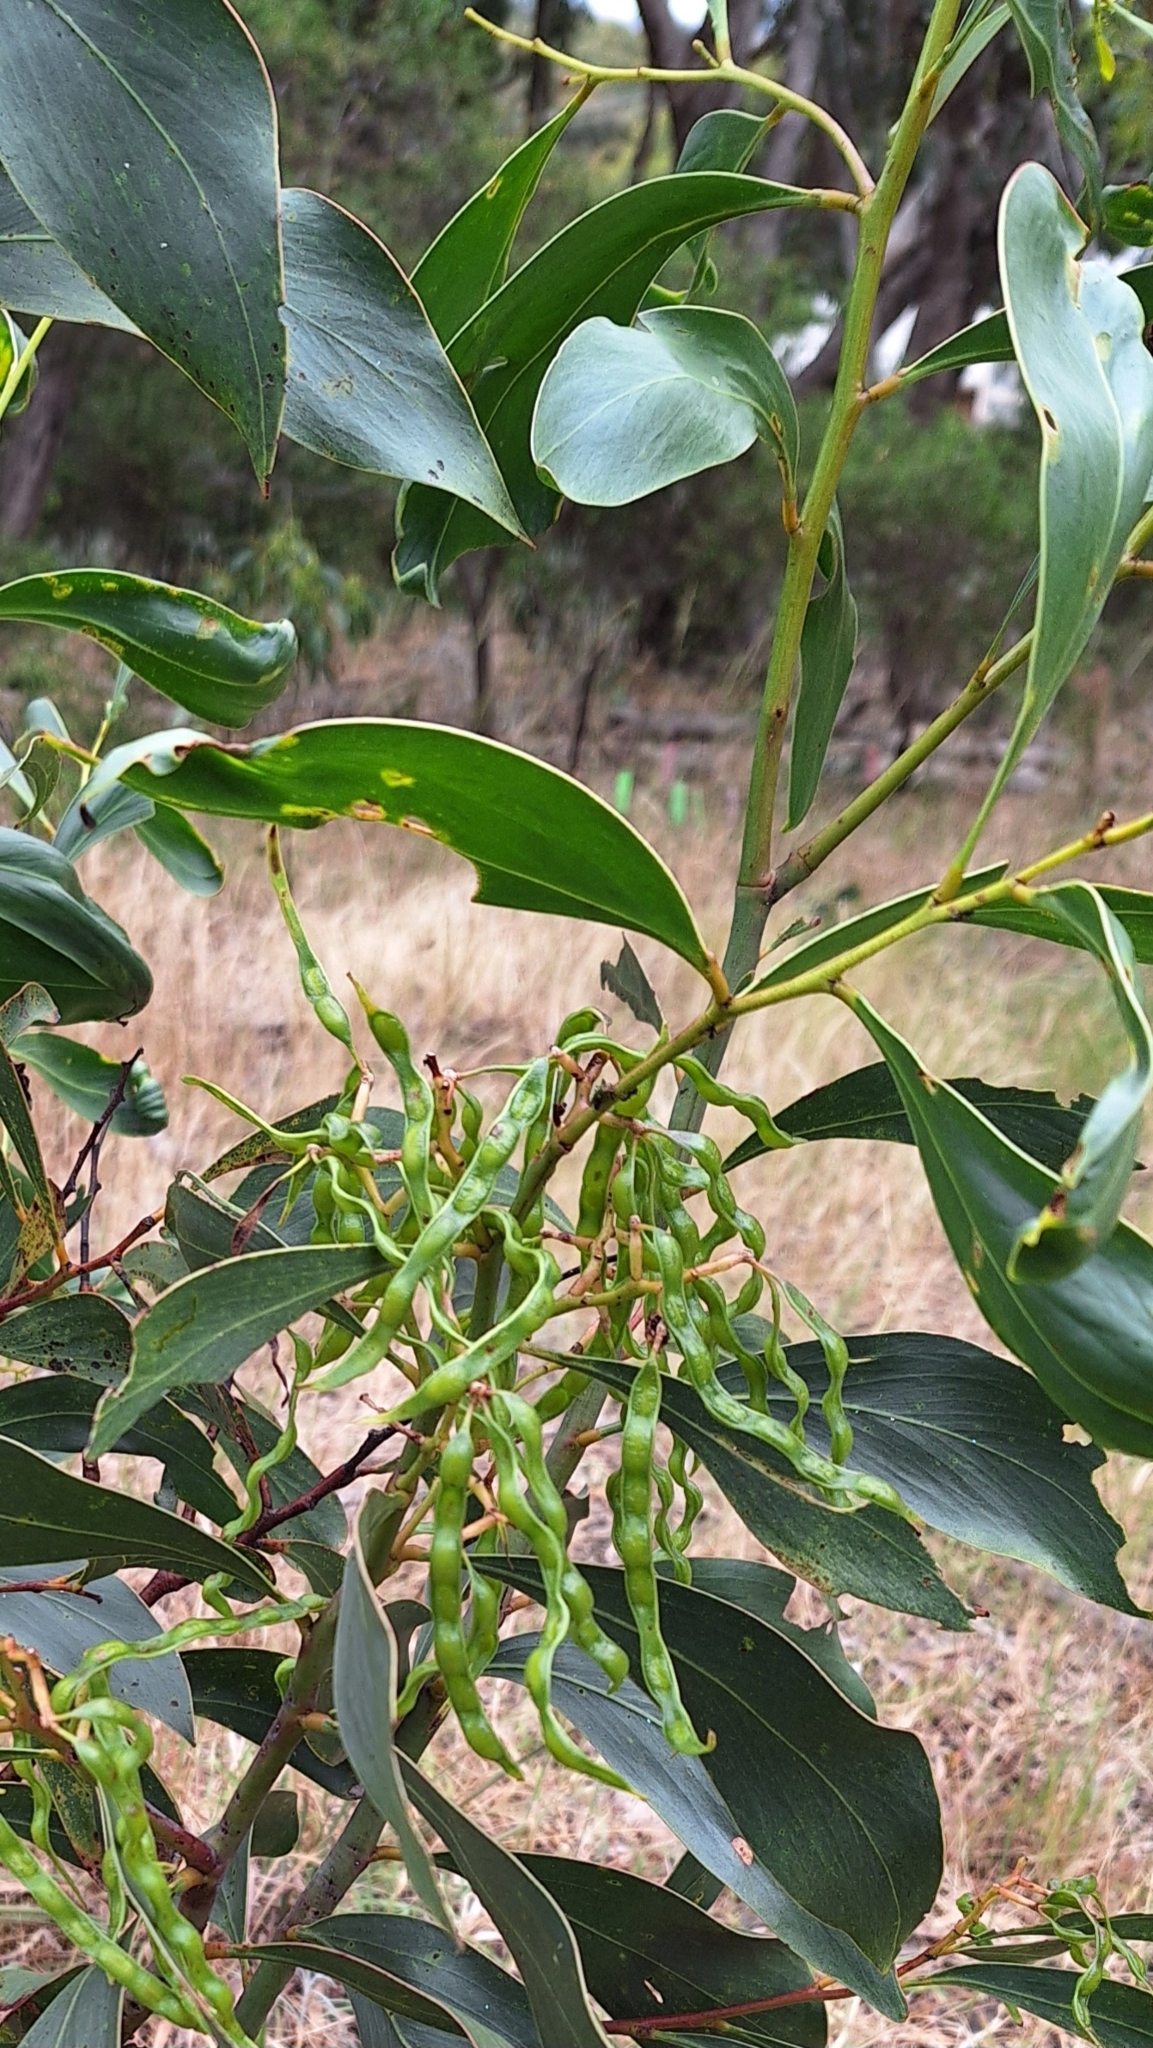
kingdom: Plantae
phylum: Tracheophyta
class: Magnoliopsida
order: Fabales
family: Fabaceae
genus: Acacia
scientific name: Acacia pycnantha
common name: Golden wattle
